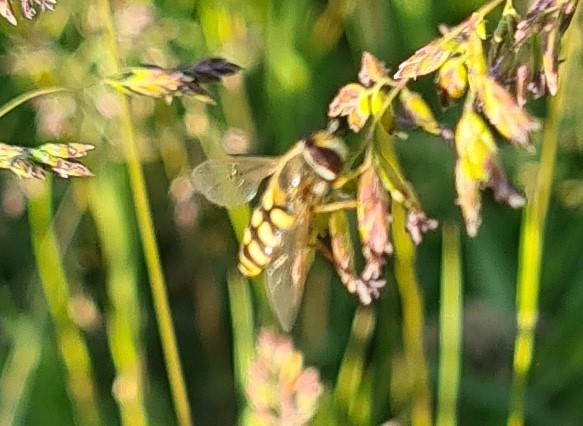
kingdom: Animalia
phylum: Arthropoda
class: Insecta
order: Diptera
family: Syrphidae
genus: Eupeodes
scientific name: Eupeodes corollae
